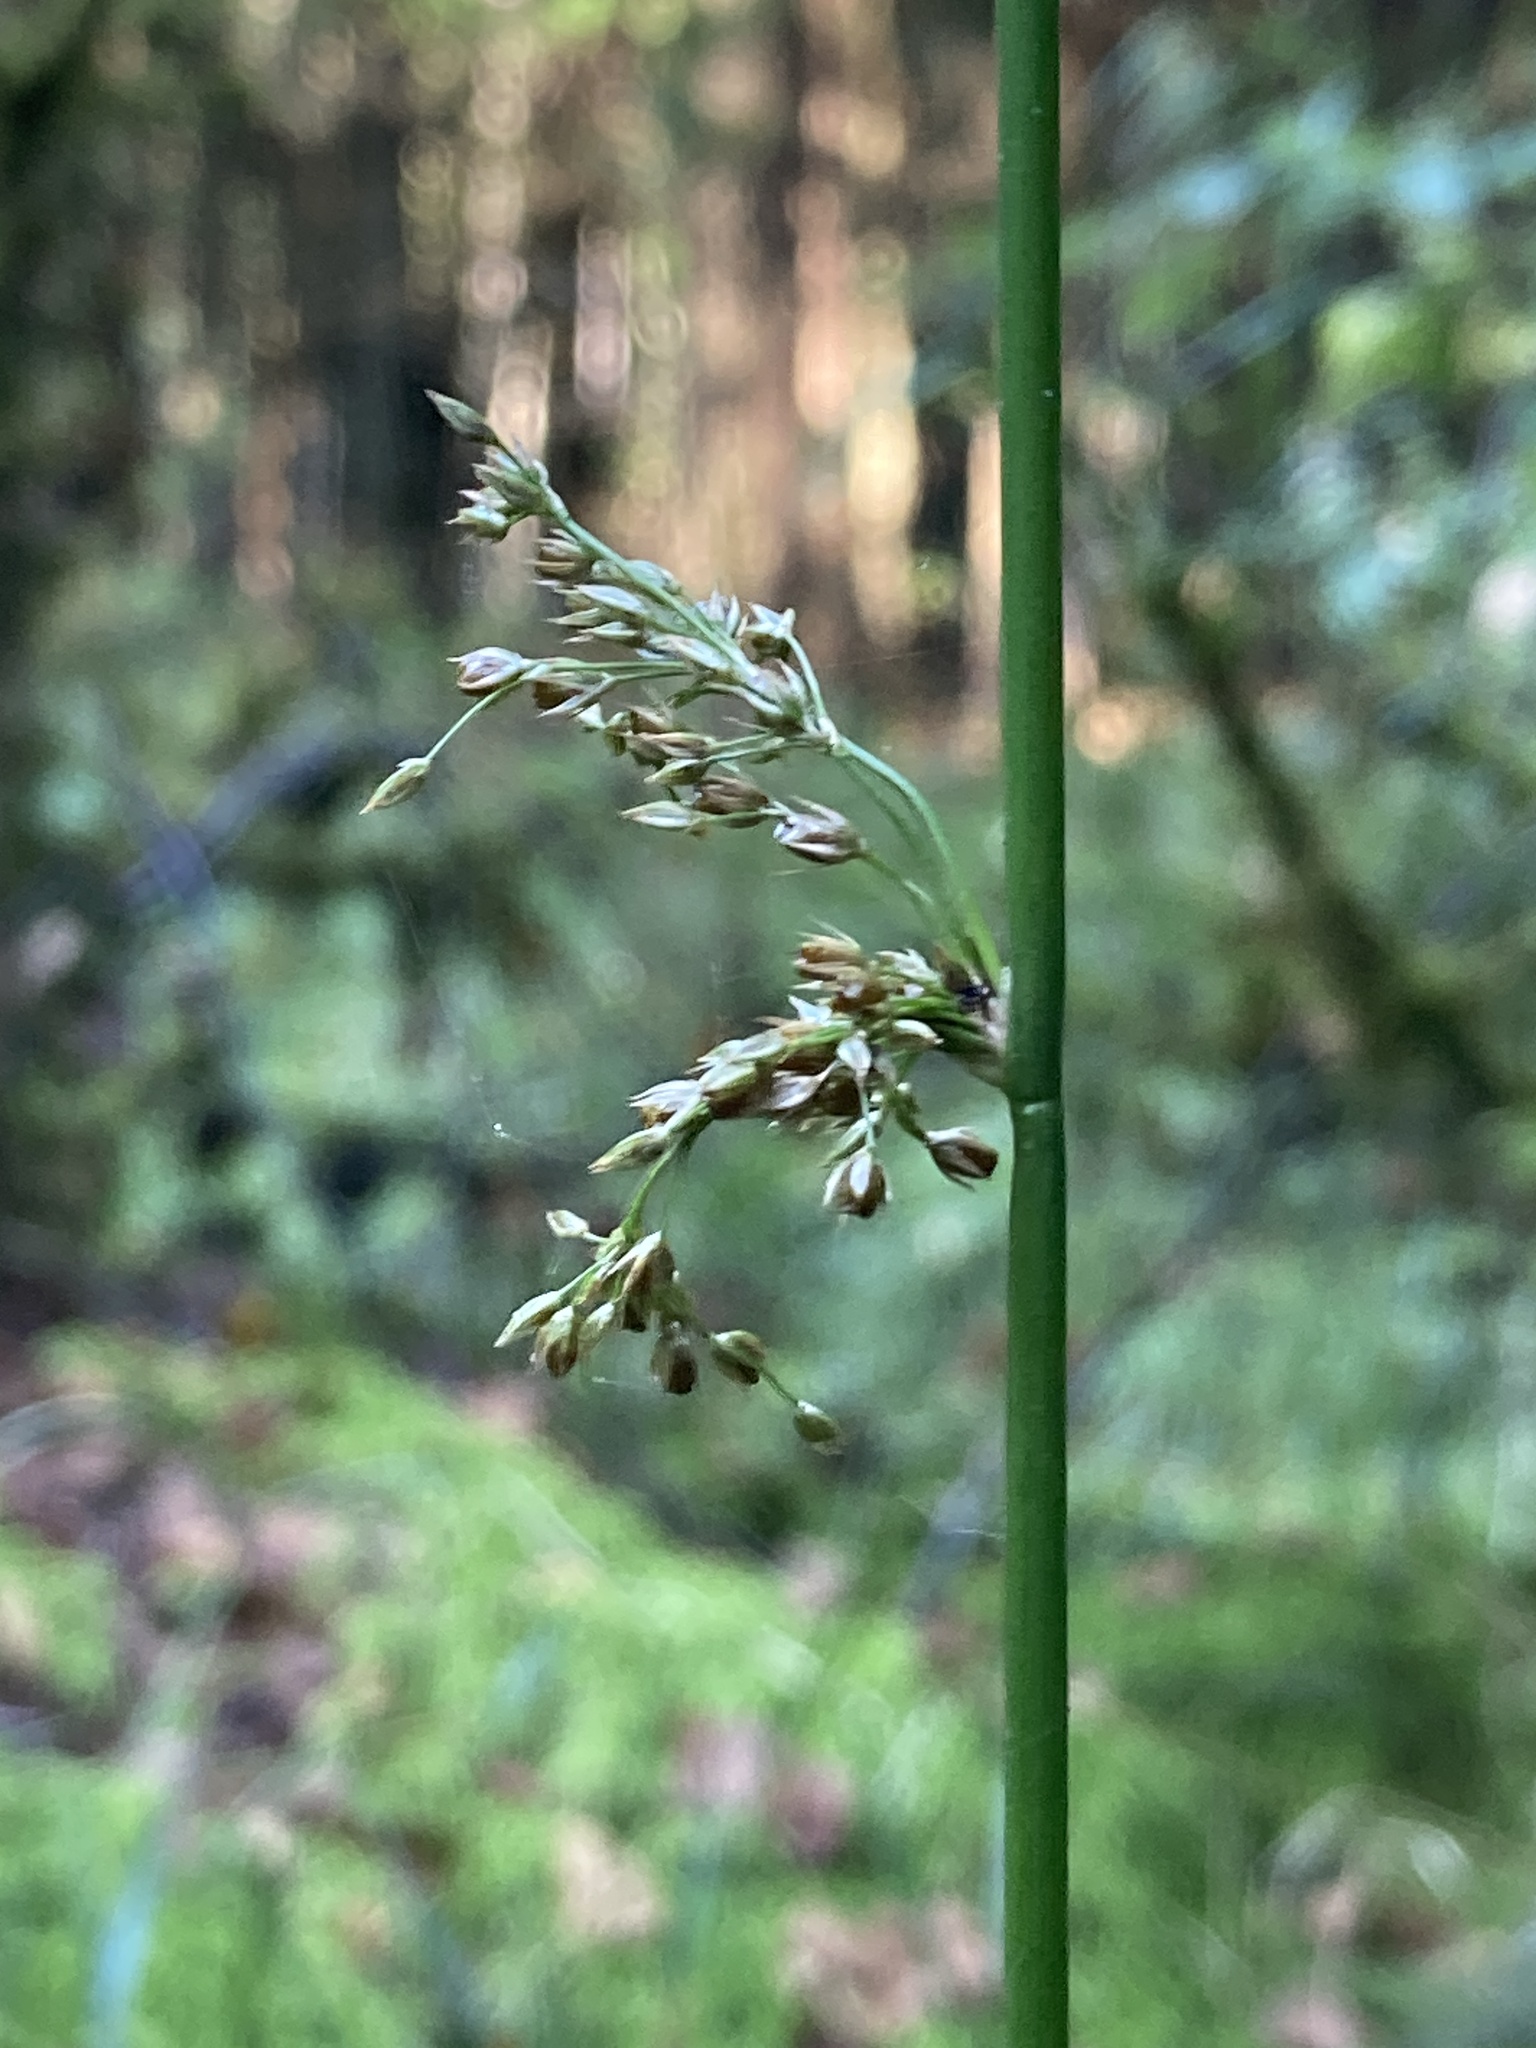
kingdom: Plantae
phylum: Tracheophyta
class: Liliopsida
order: Poales
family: Juncaceae
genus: Juncus
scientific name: Juncus effusus
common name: Soft rush
